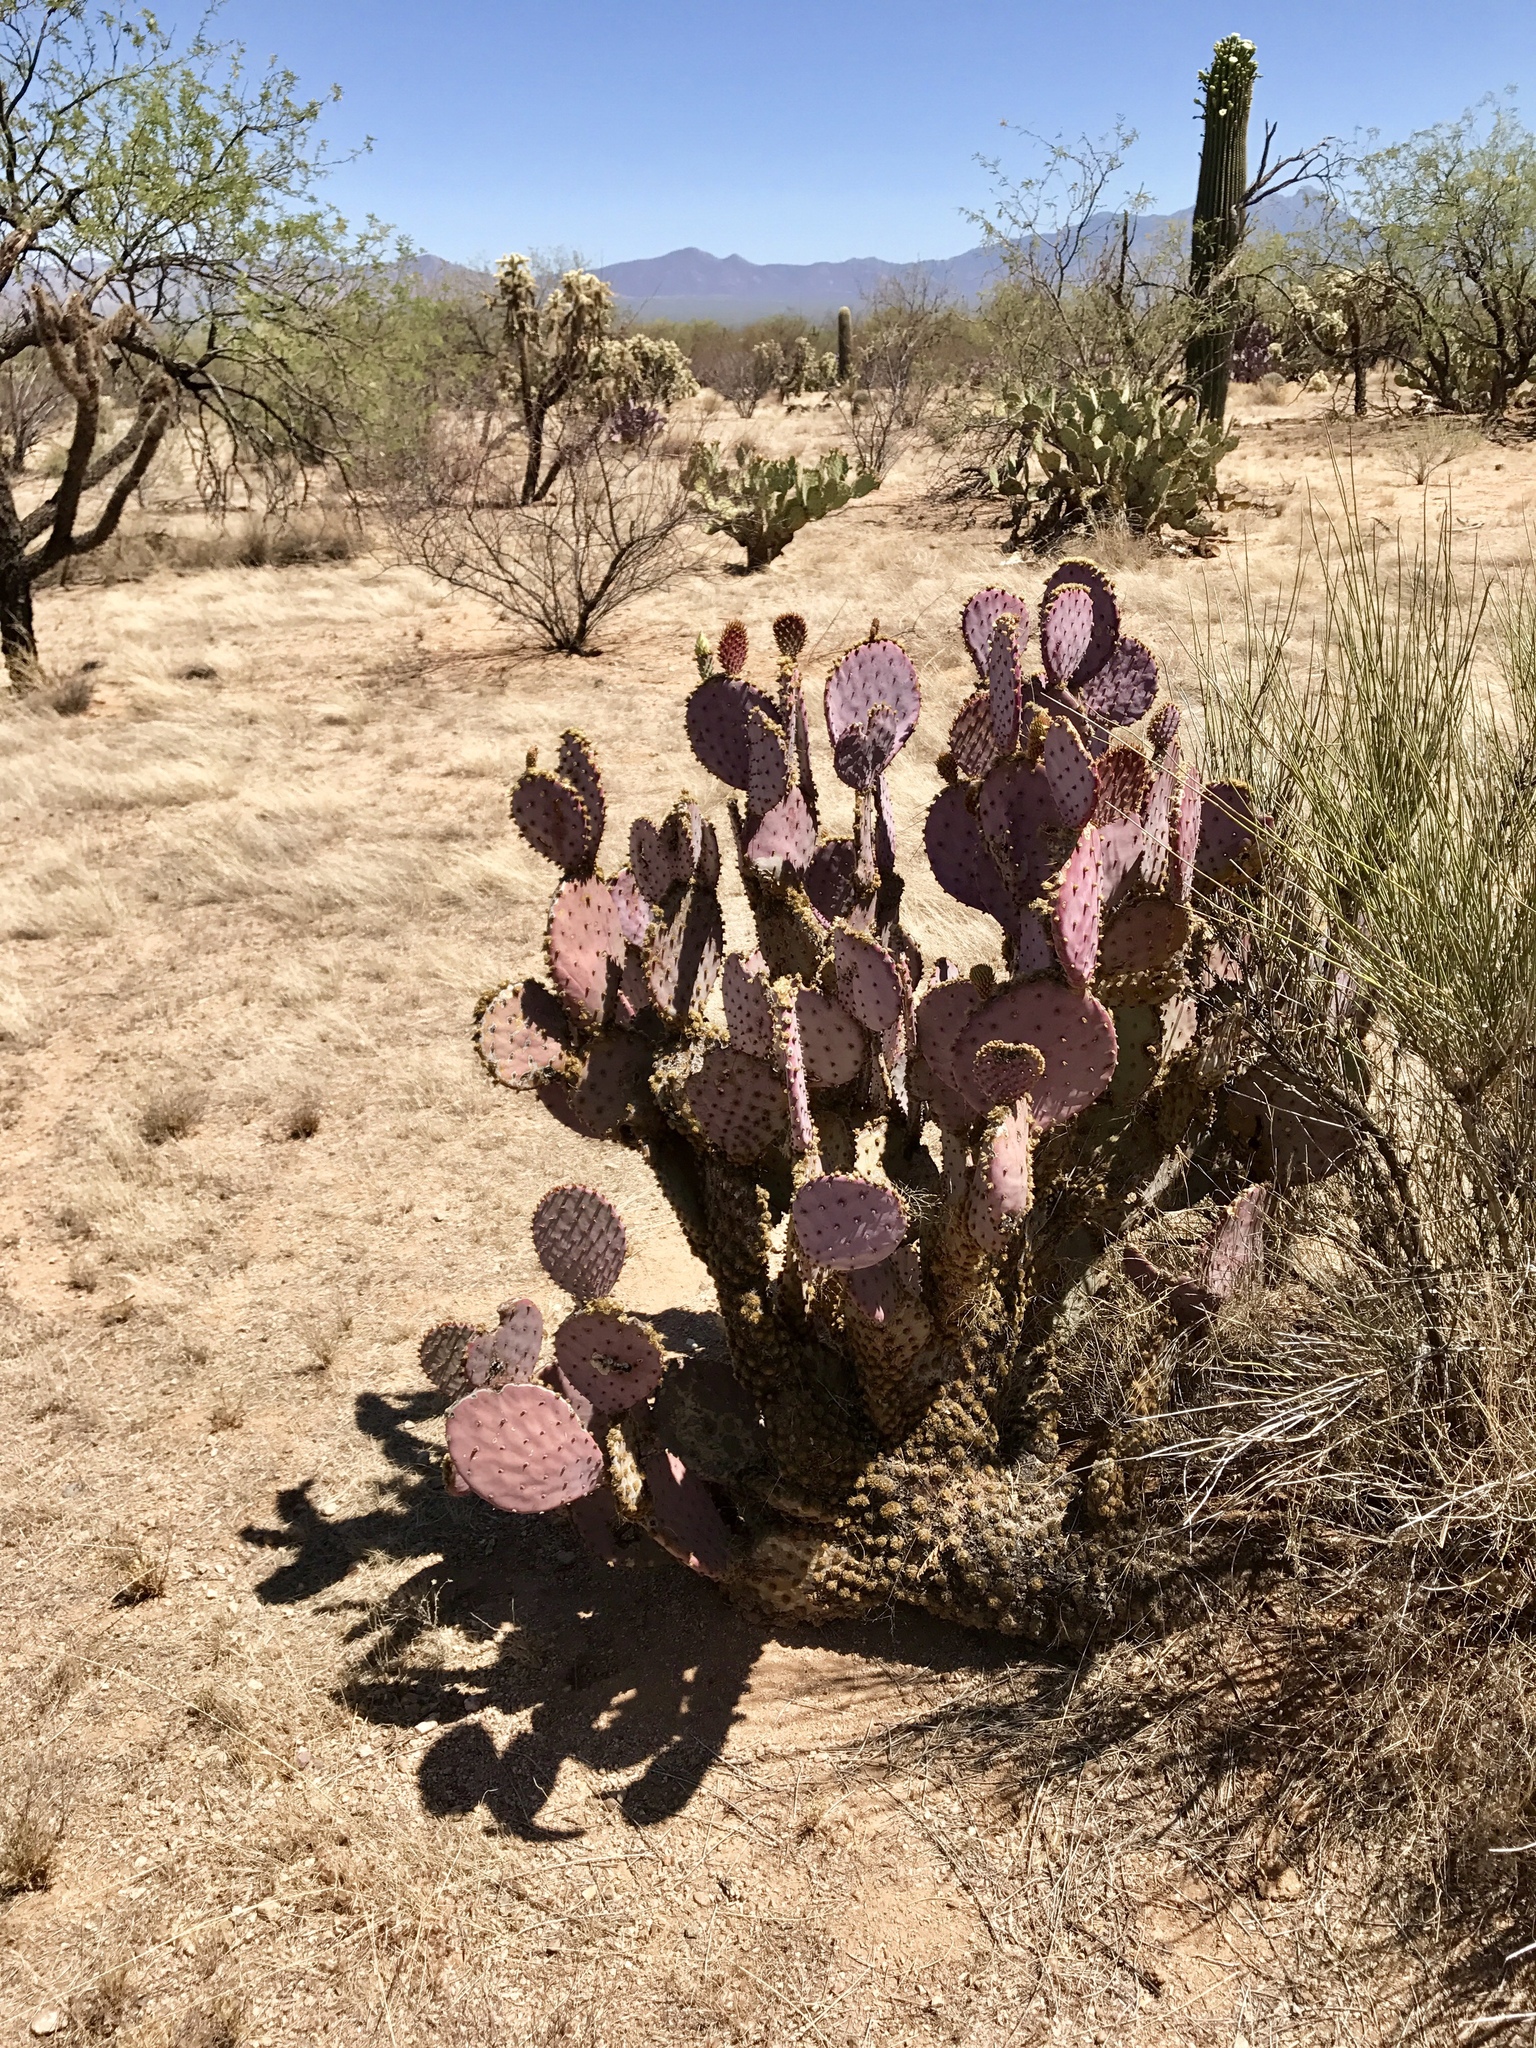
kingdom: Plantae
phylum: Tracheophyta
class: Magnoliopsida
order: Caryophyllales
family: Cactaceae
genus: Opuntia
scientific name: Opuntia gosseliniana
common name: Violet prickly-pear
